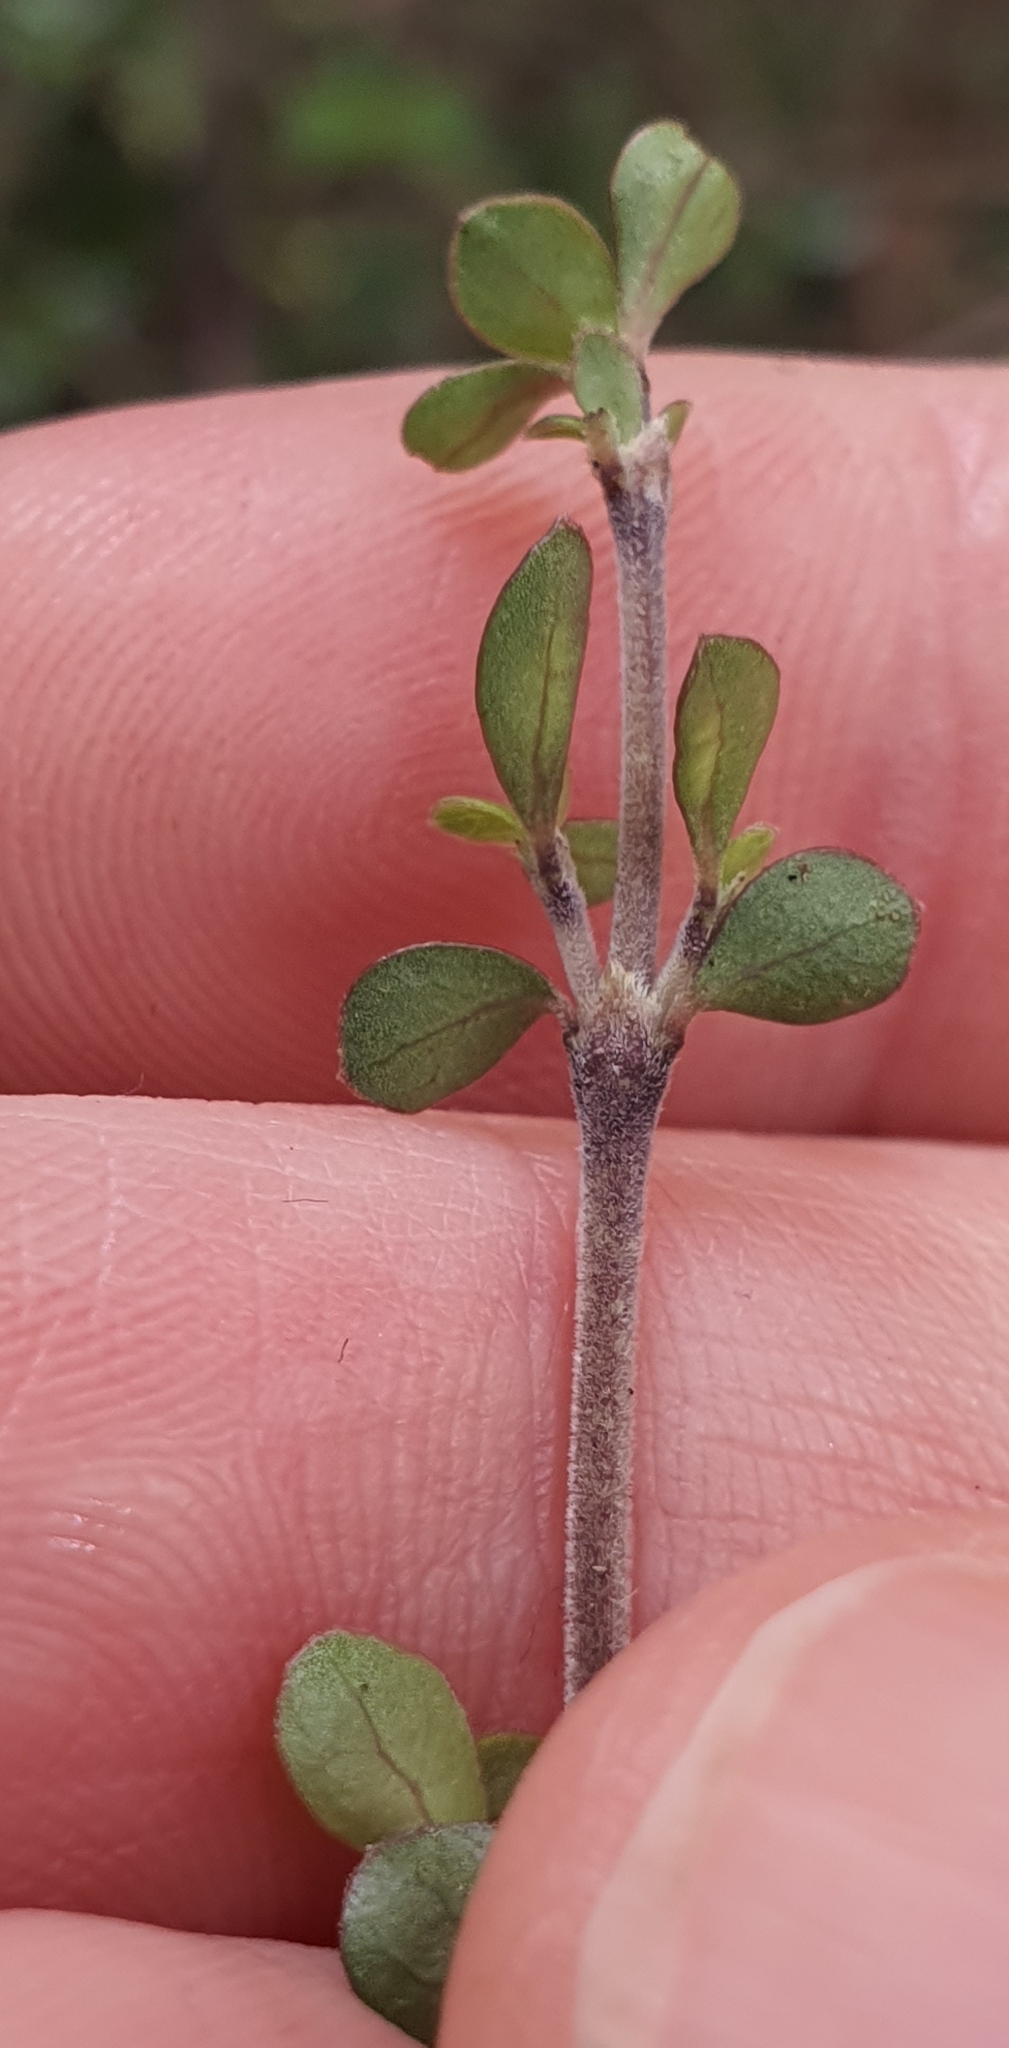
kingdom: Plantae
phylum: Tracheophyta
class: Magnoliopsida
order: Gentianales
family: Rubiaceae
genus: Coprosma
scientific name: Coprosma rhamnoides
